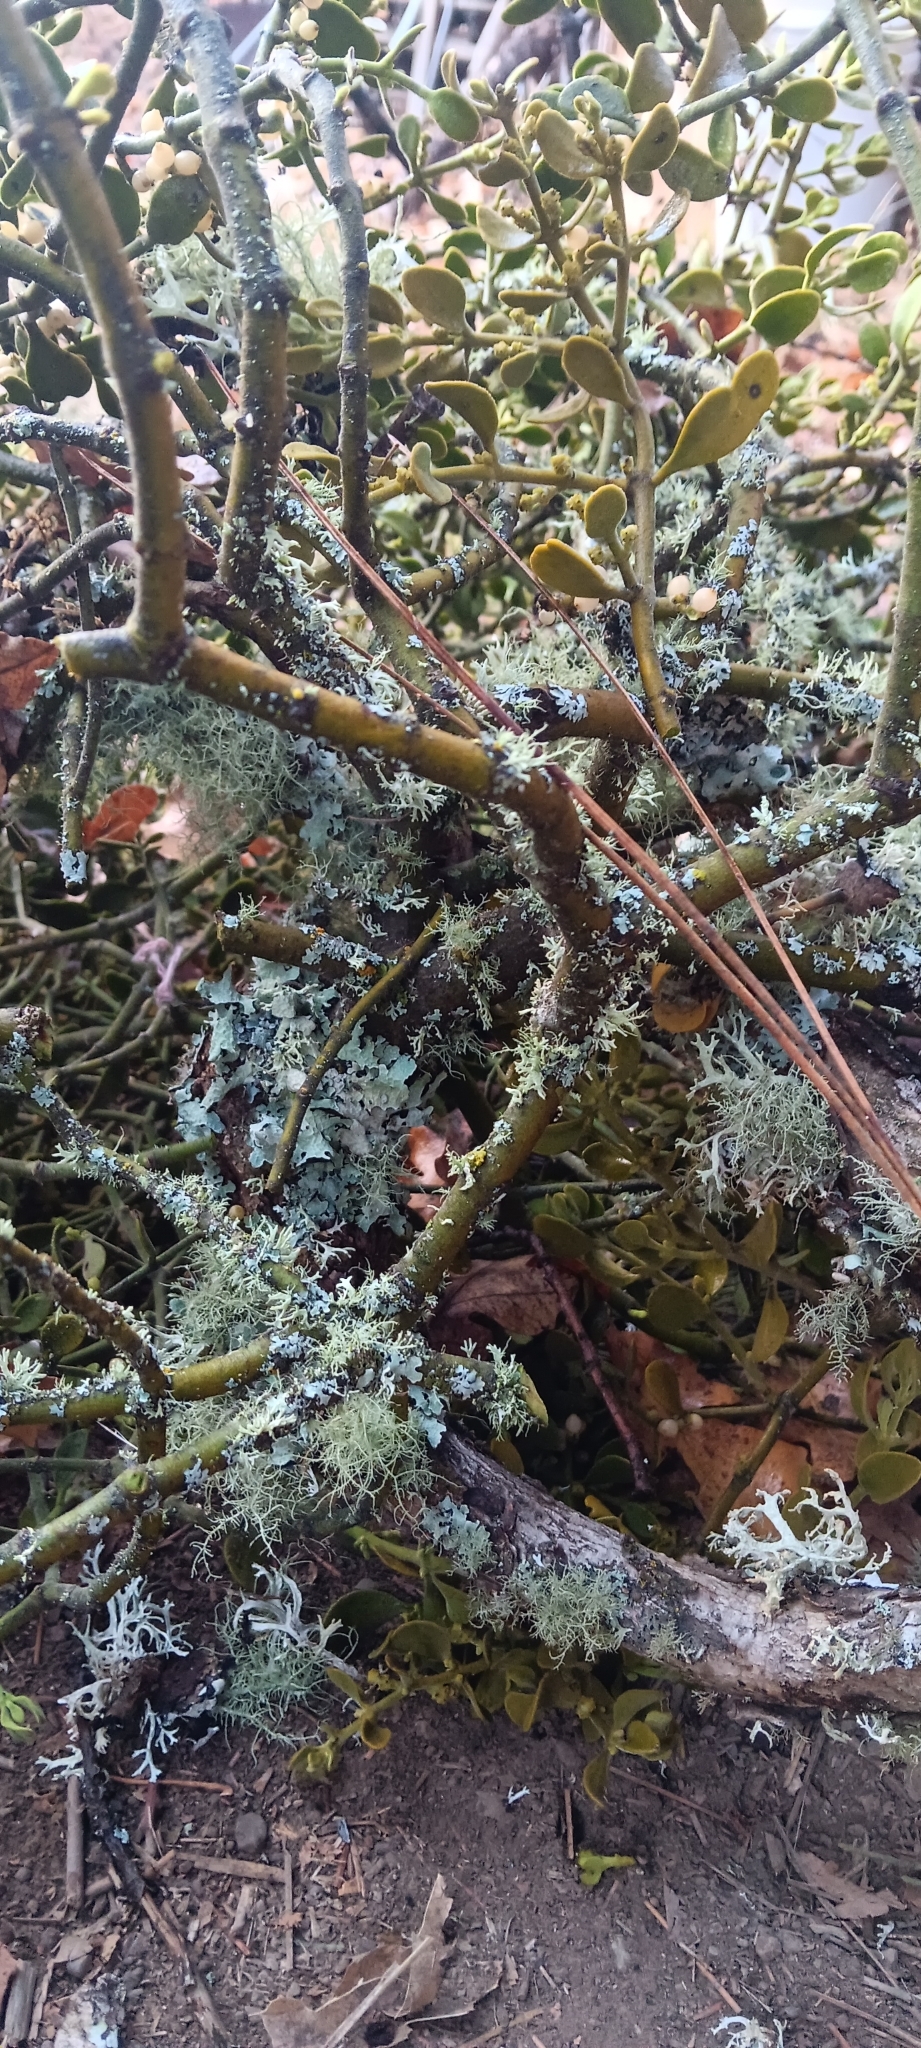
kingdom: Plantae
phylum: Tracheophyta
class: Magnoliopsida
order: Santalales
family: Viscaceae
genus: Phoradendron
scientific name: Phoradendron leucarpum
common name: Pacific mistletoe
